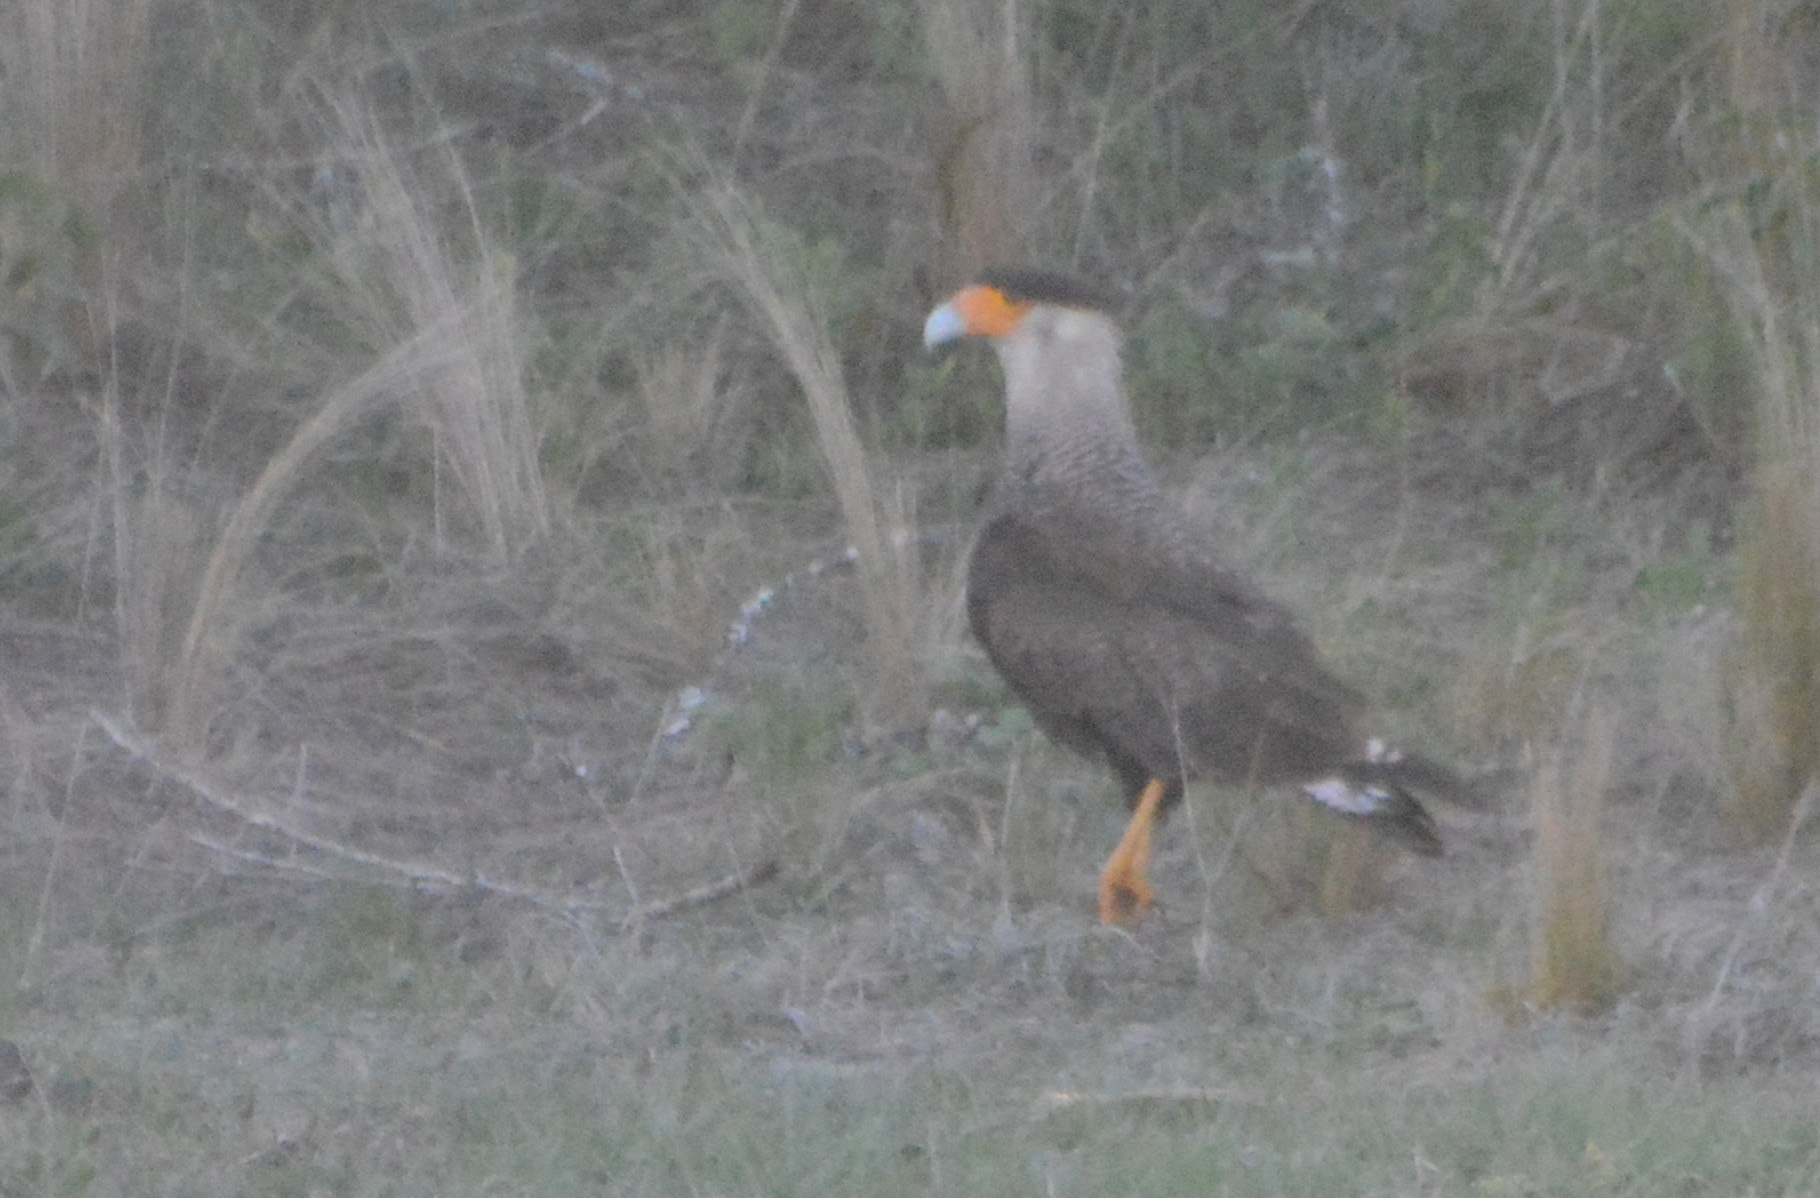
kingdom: Animalia
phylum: Chordata
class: Aves
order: Falconiformes
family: Falconidae
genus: Caracara
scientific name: Caracara plancus
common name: Southern caracara
